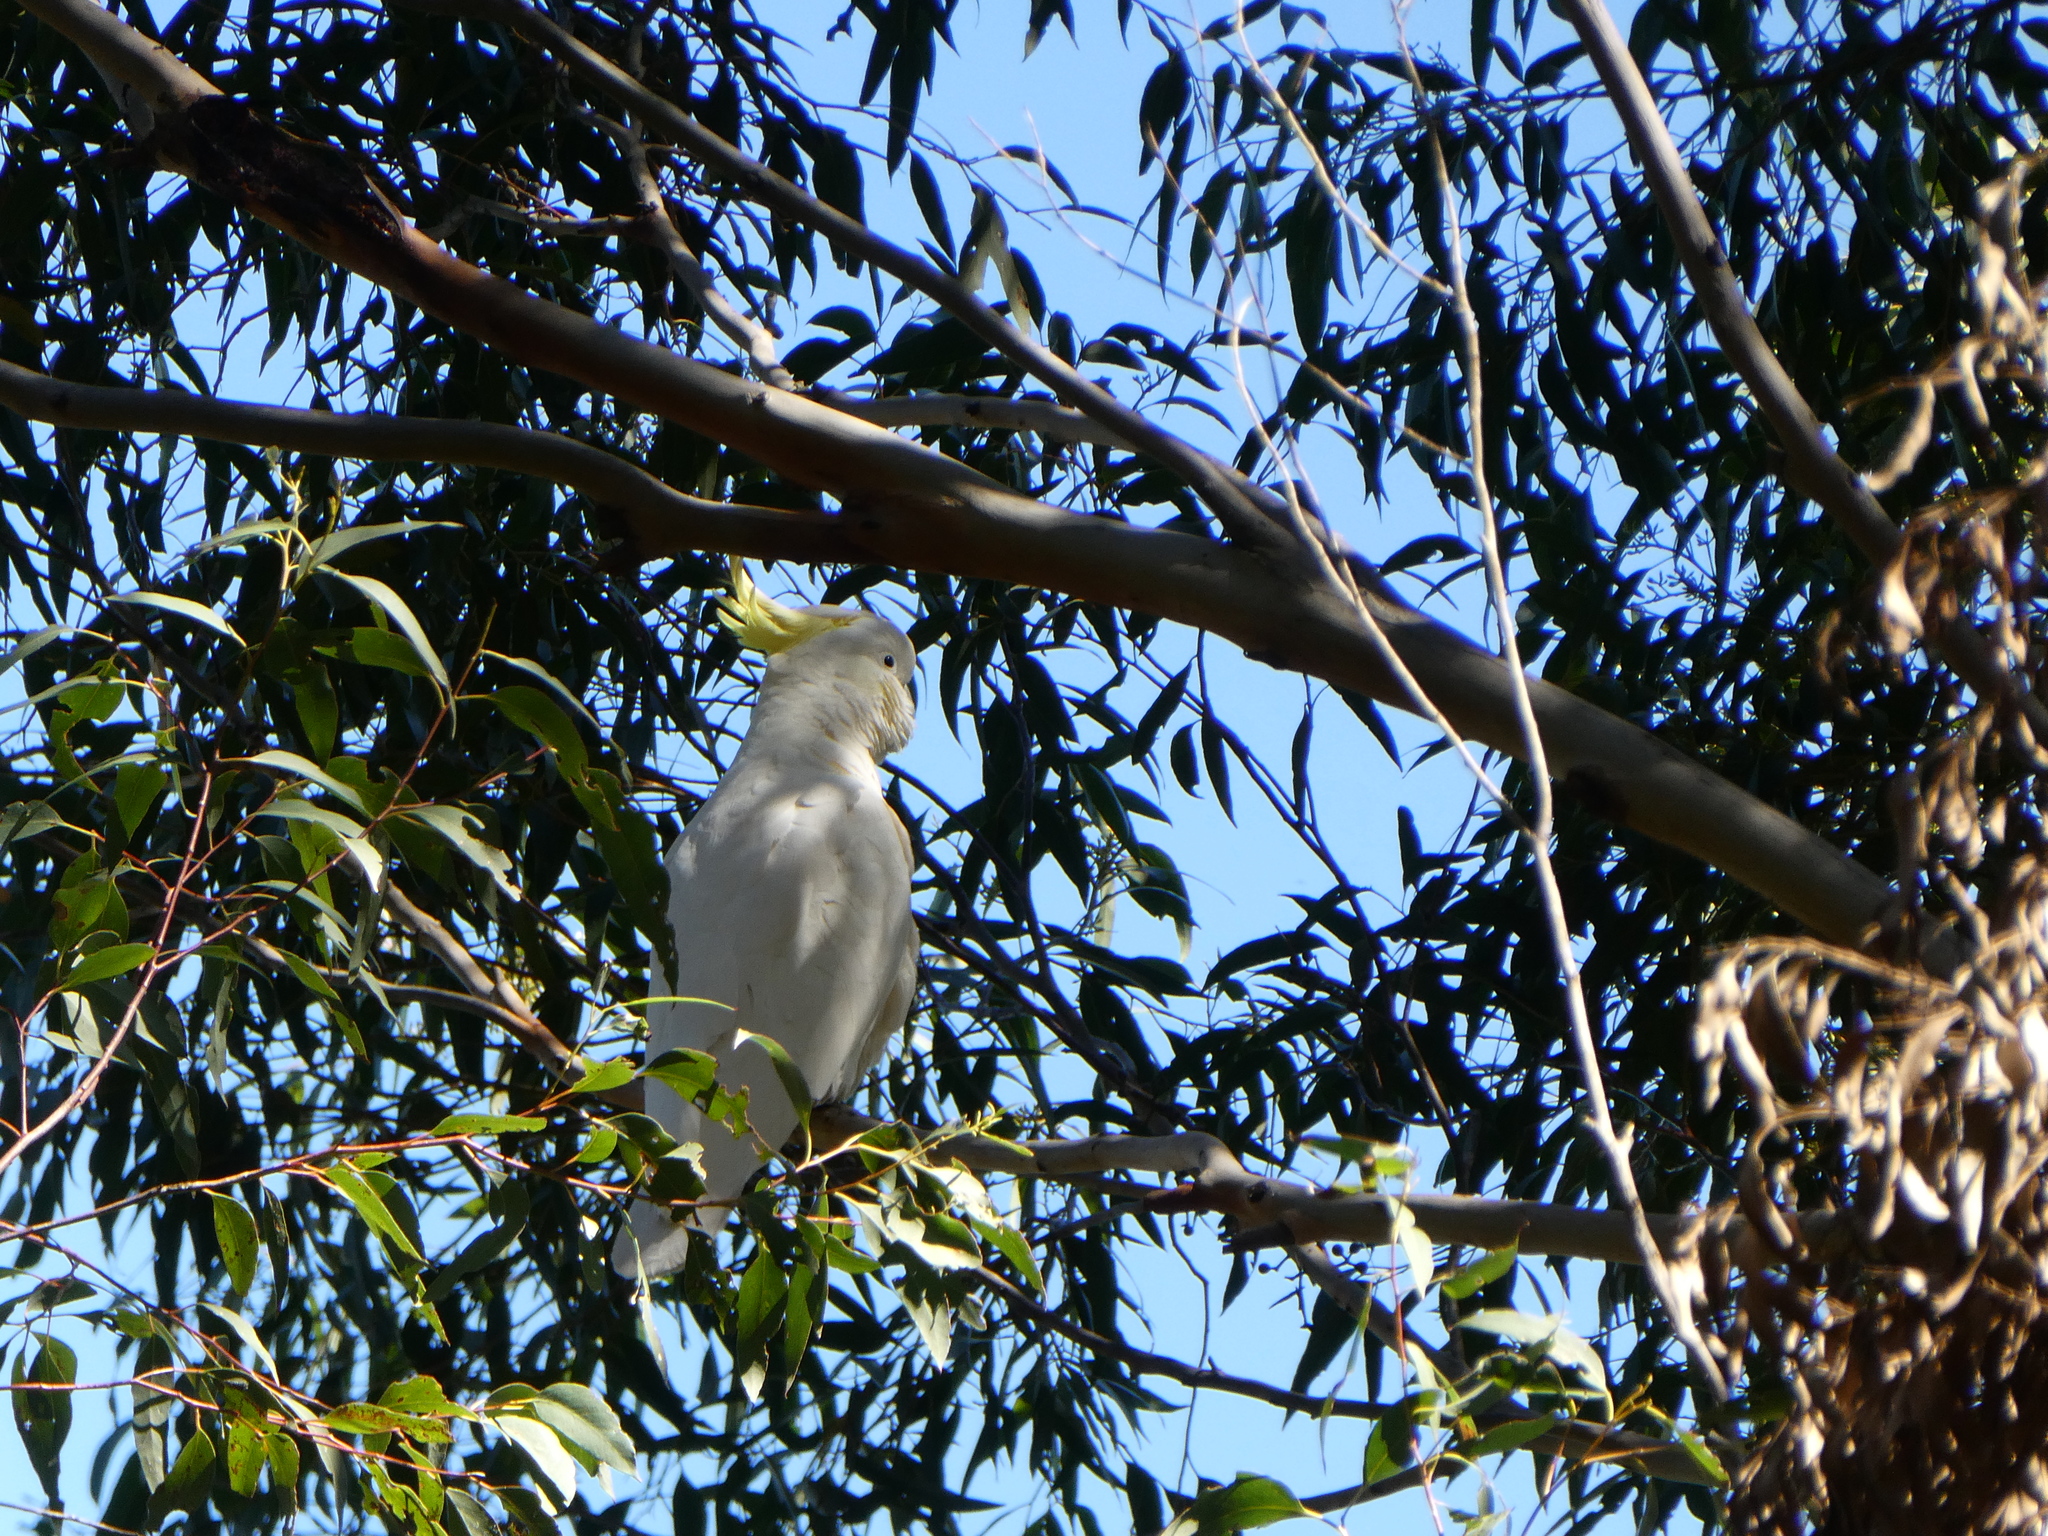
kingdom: Animalia
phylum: Chordata
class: Aves
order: Psittaciformes
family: Psittacidae
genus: Cacatua
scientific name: Cacatua galerita
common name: Sulphur-crested cockatoo
